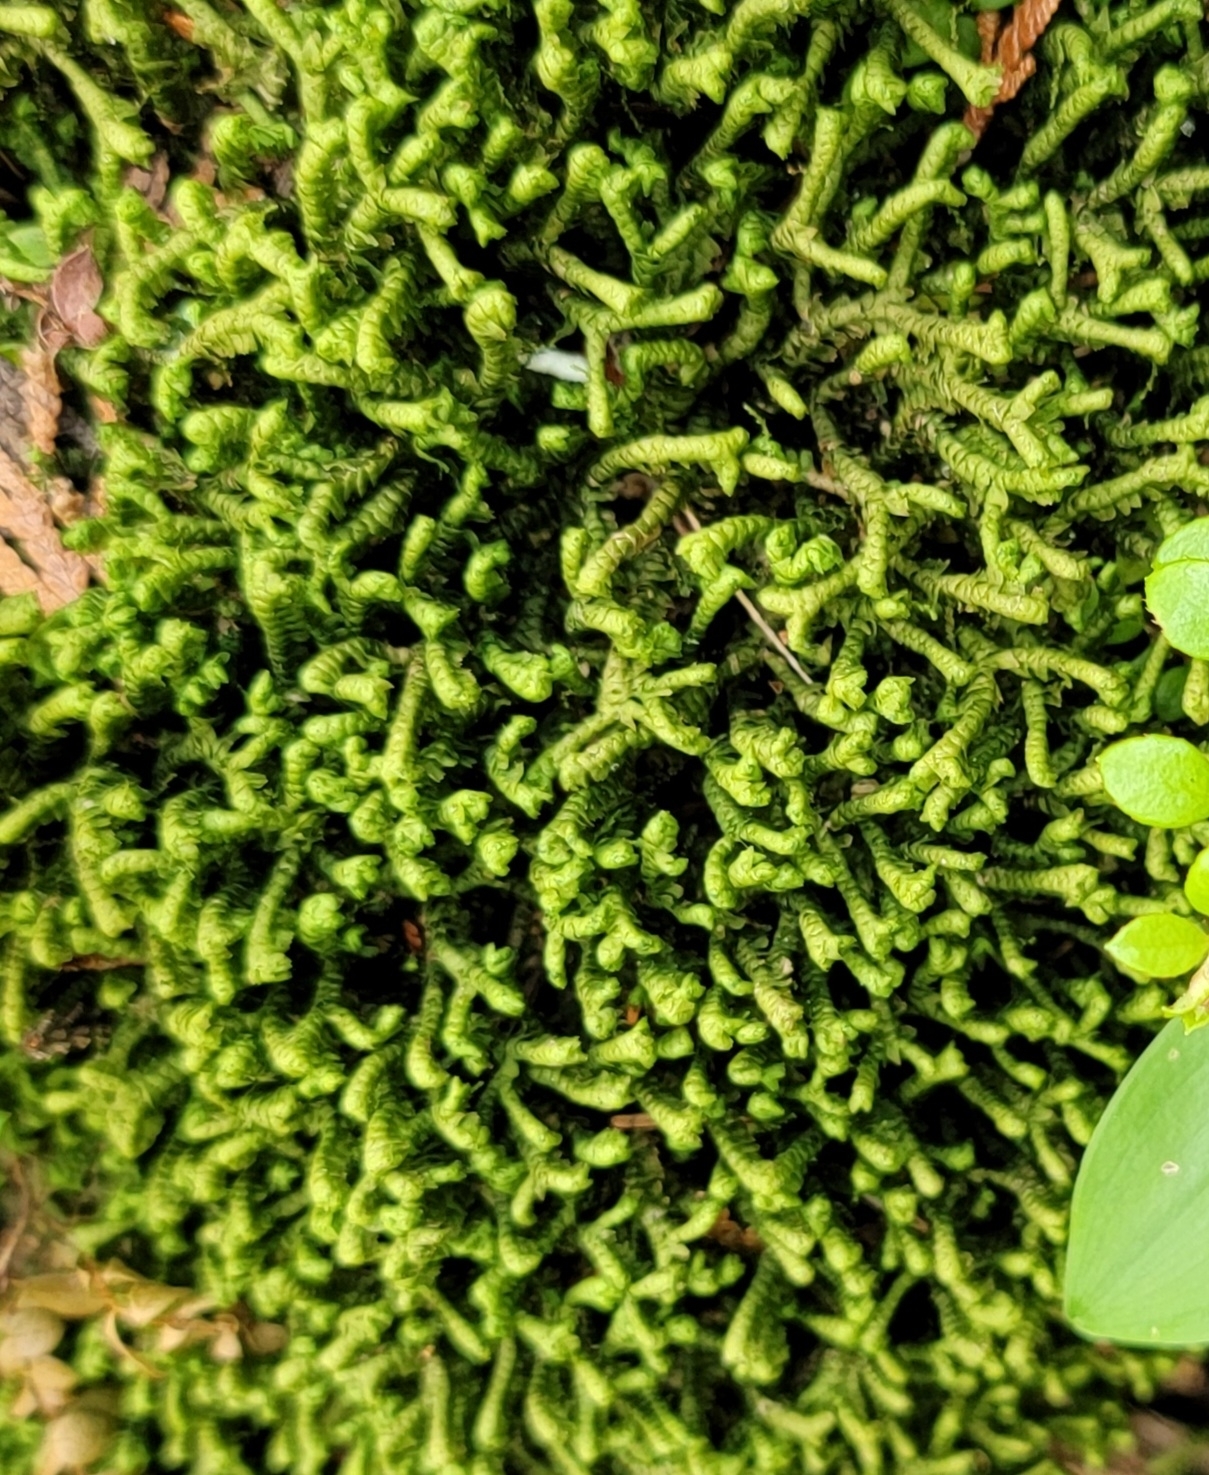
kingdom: Plantae
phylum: Marchantiophyta
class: Jungermanniopsida
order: Jungermanniales
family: Lepidoziaceae
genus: Bazzania
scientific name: Bazzania trilobata
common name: Three-lobed whipwort
